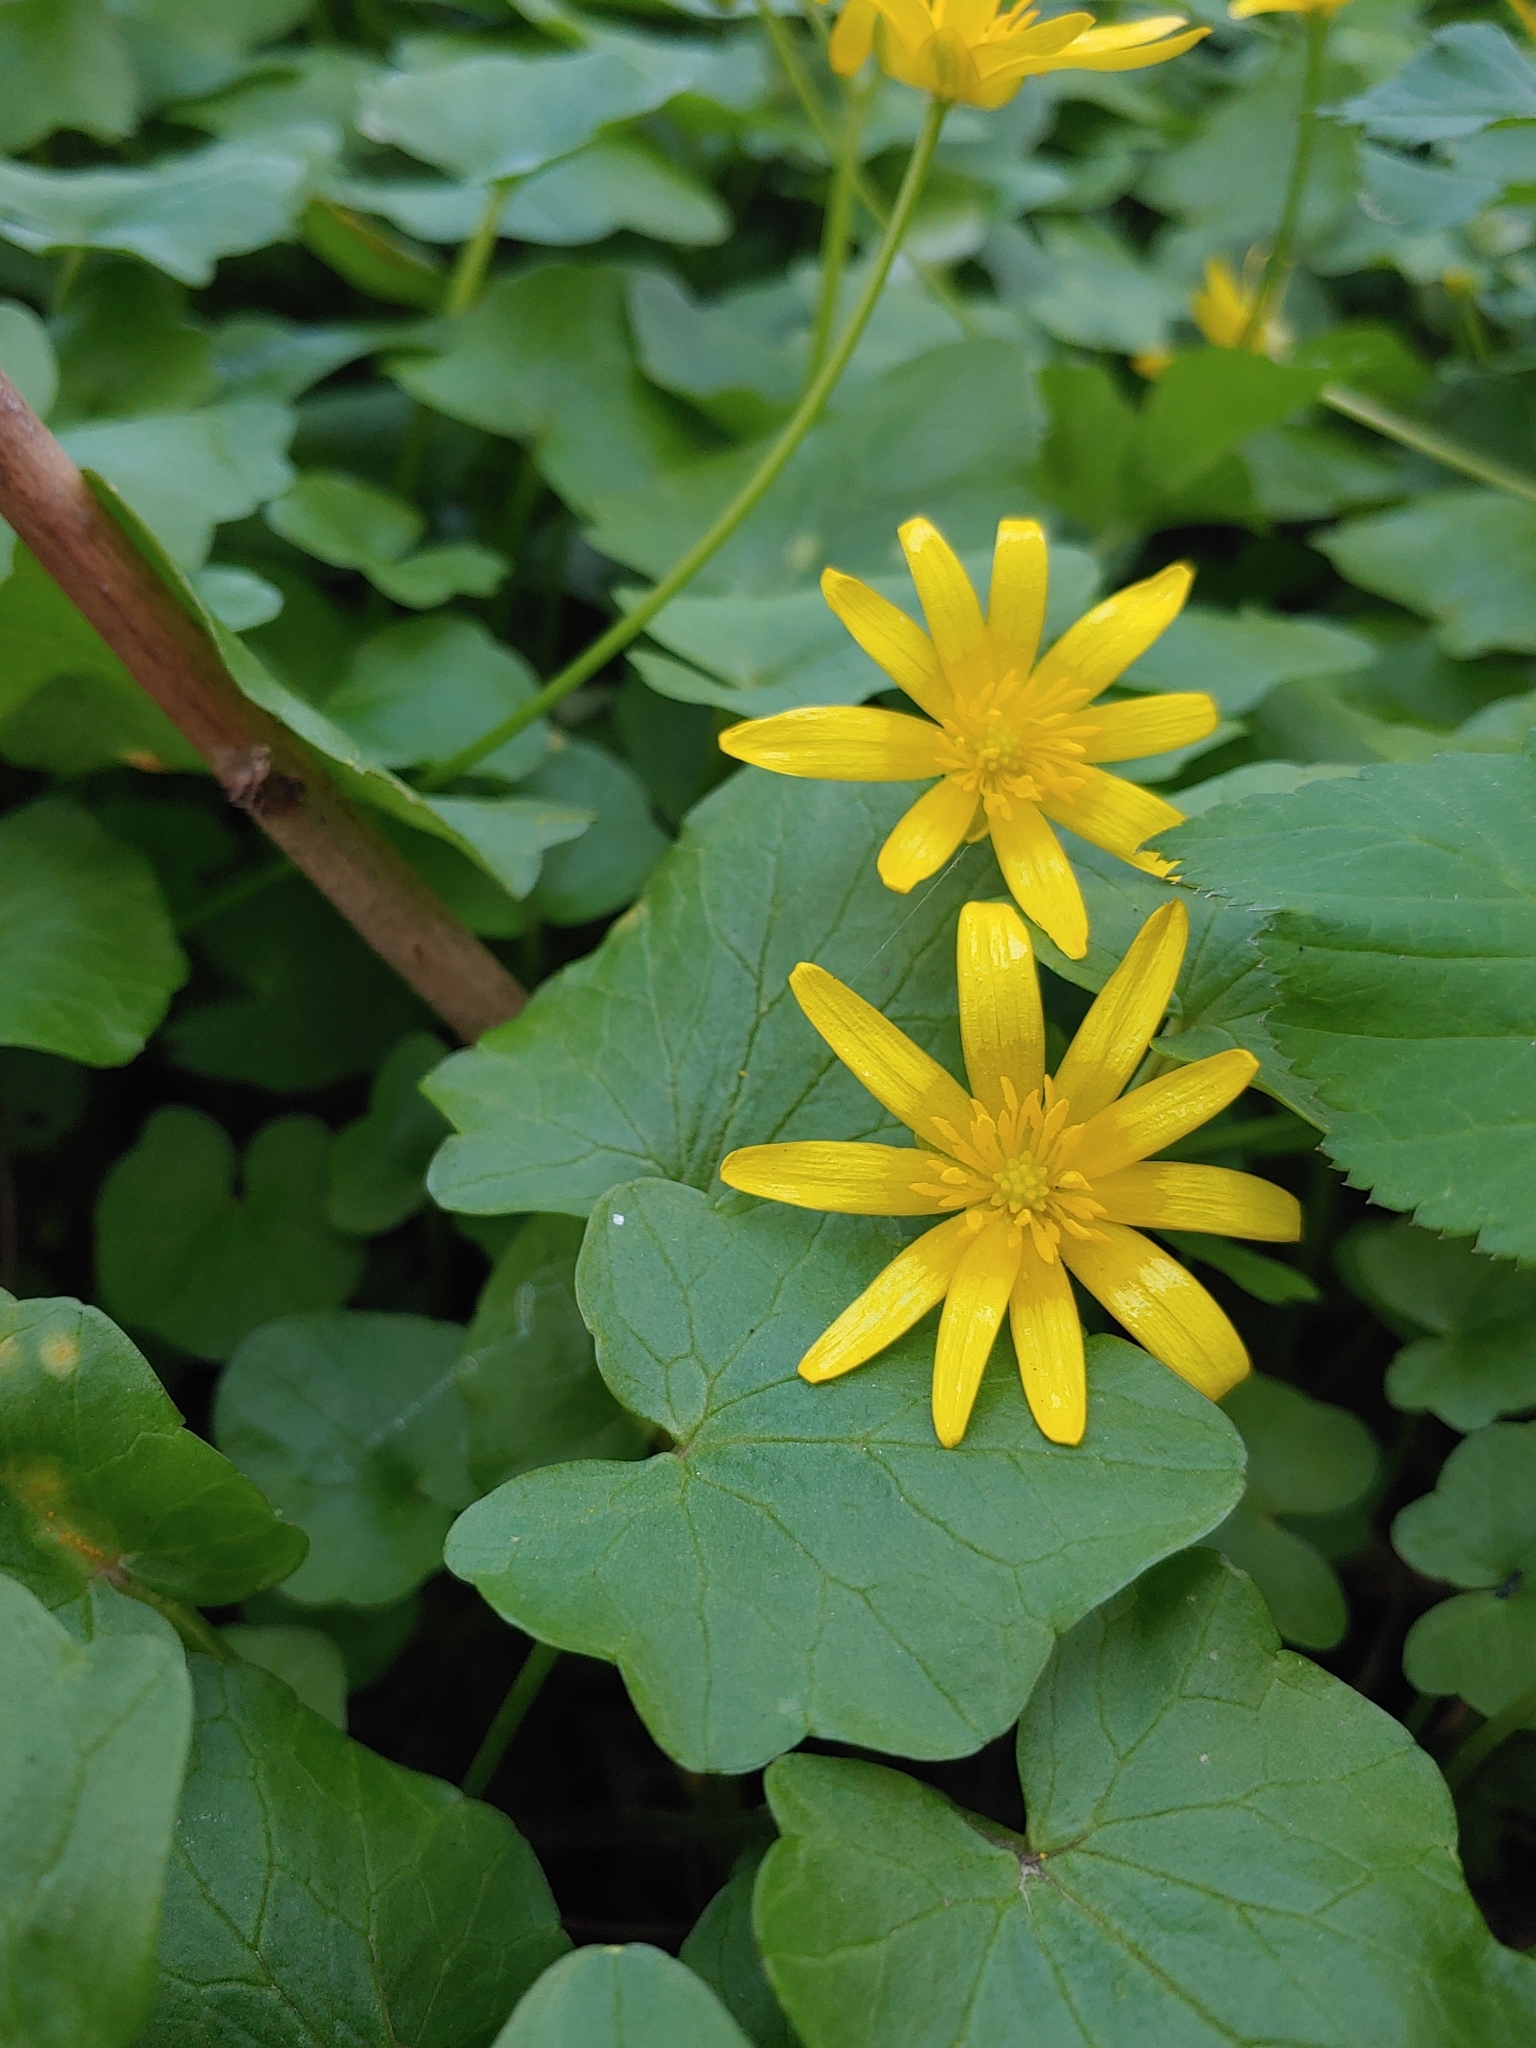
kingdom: Plantae
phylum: Tracheophyta
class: Magnoliopsida
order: Ranunculales
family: Ranunculaceae
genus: Ficaria
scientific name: Ficaria verna
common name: Lesser celandine
